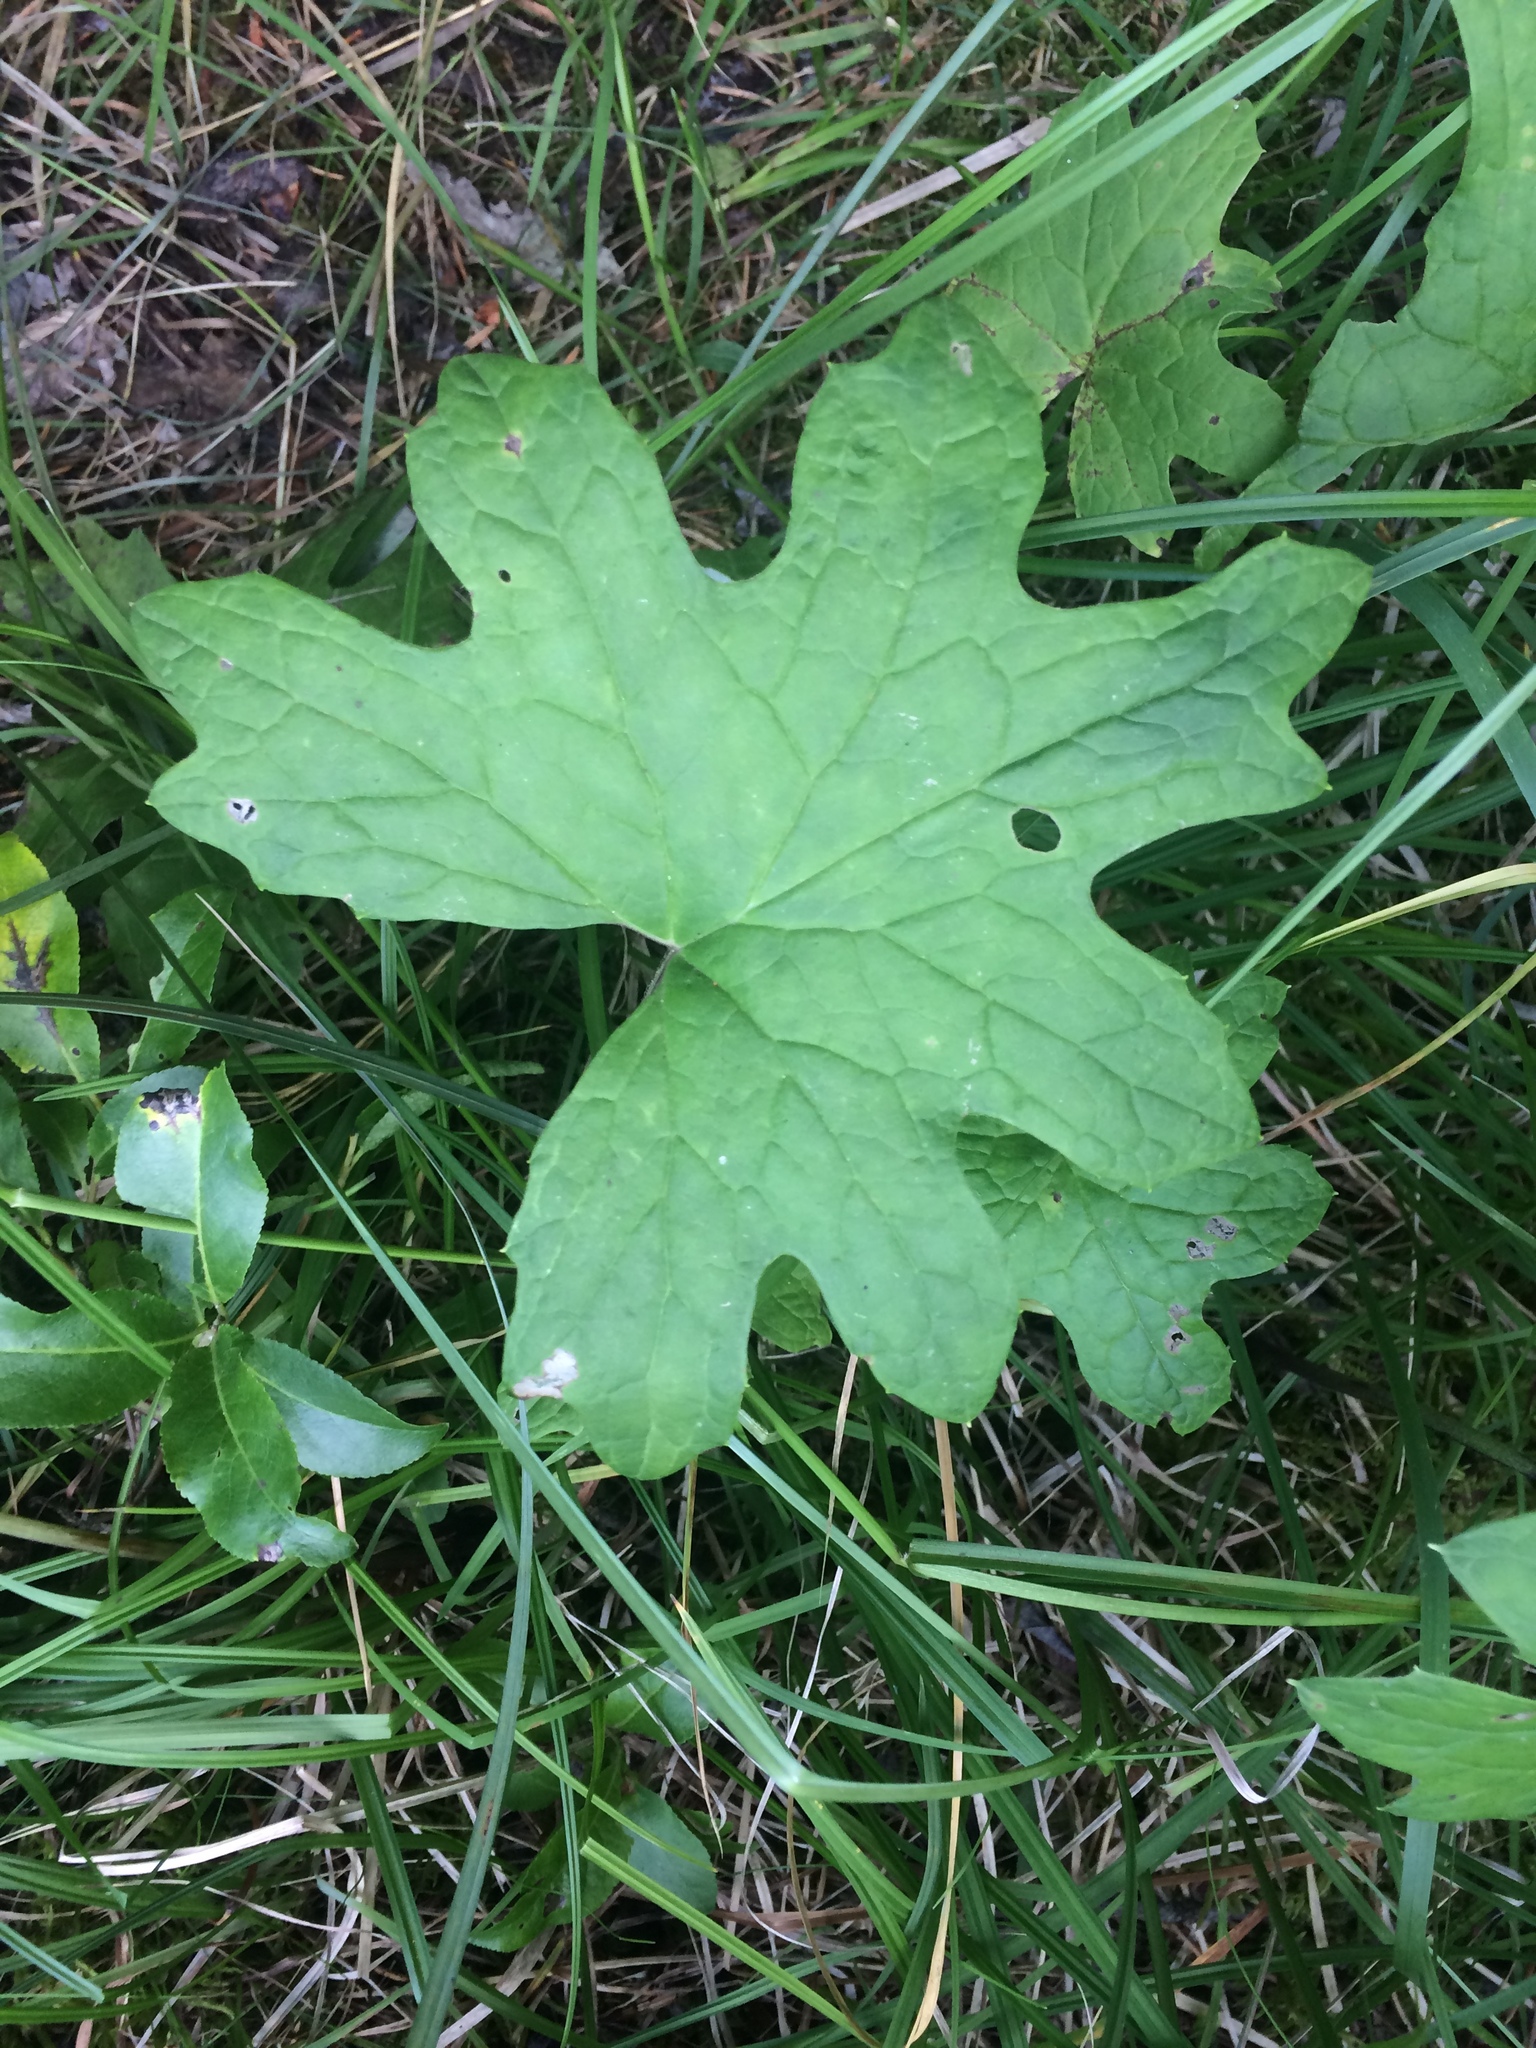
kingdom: Plantae
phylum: Tracheophyta
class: Magnoliopsida
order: Asterales
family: Asteraceae
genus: Petasites
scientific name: Petasites frigidus
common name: Arctic butterbur
